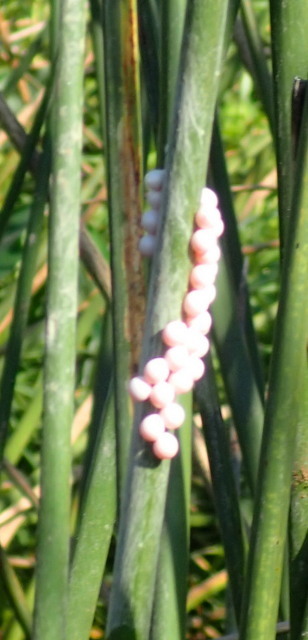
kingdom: Animalia
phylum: Mollusca
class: Gastropoda
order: Architaenioglossa
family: Ampullariidae
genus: Pomacea
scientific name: Pomacea paludosa
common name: Florida applesnail
